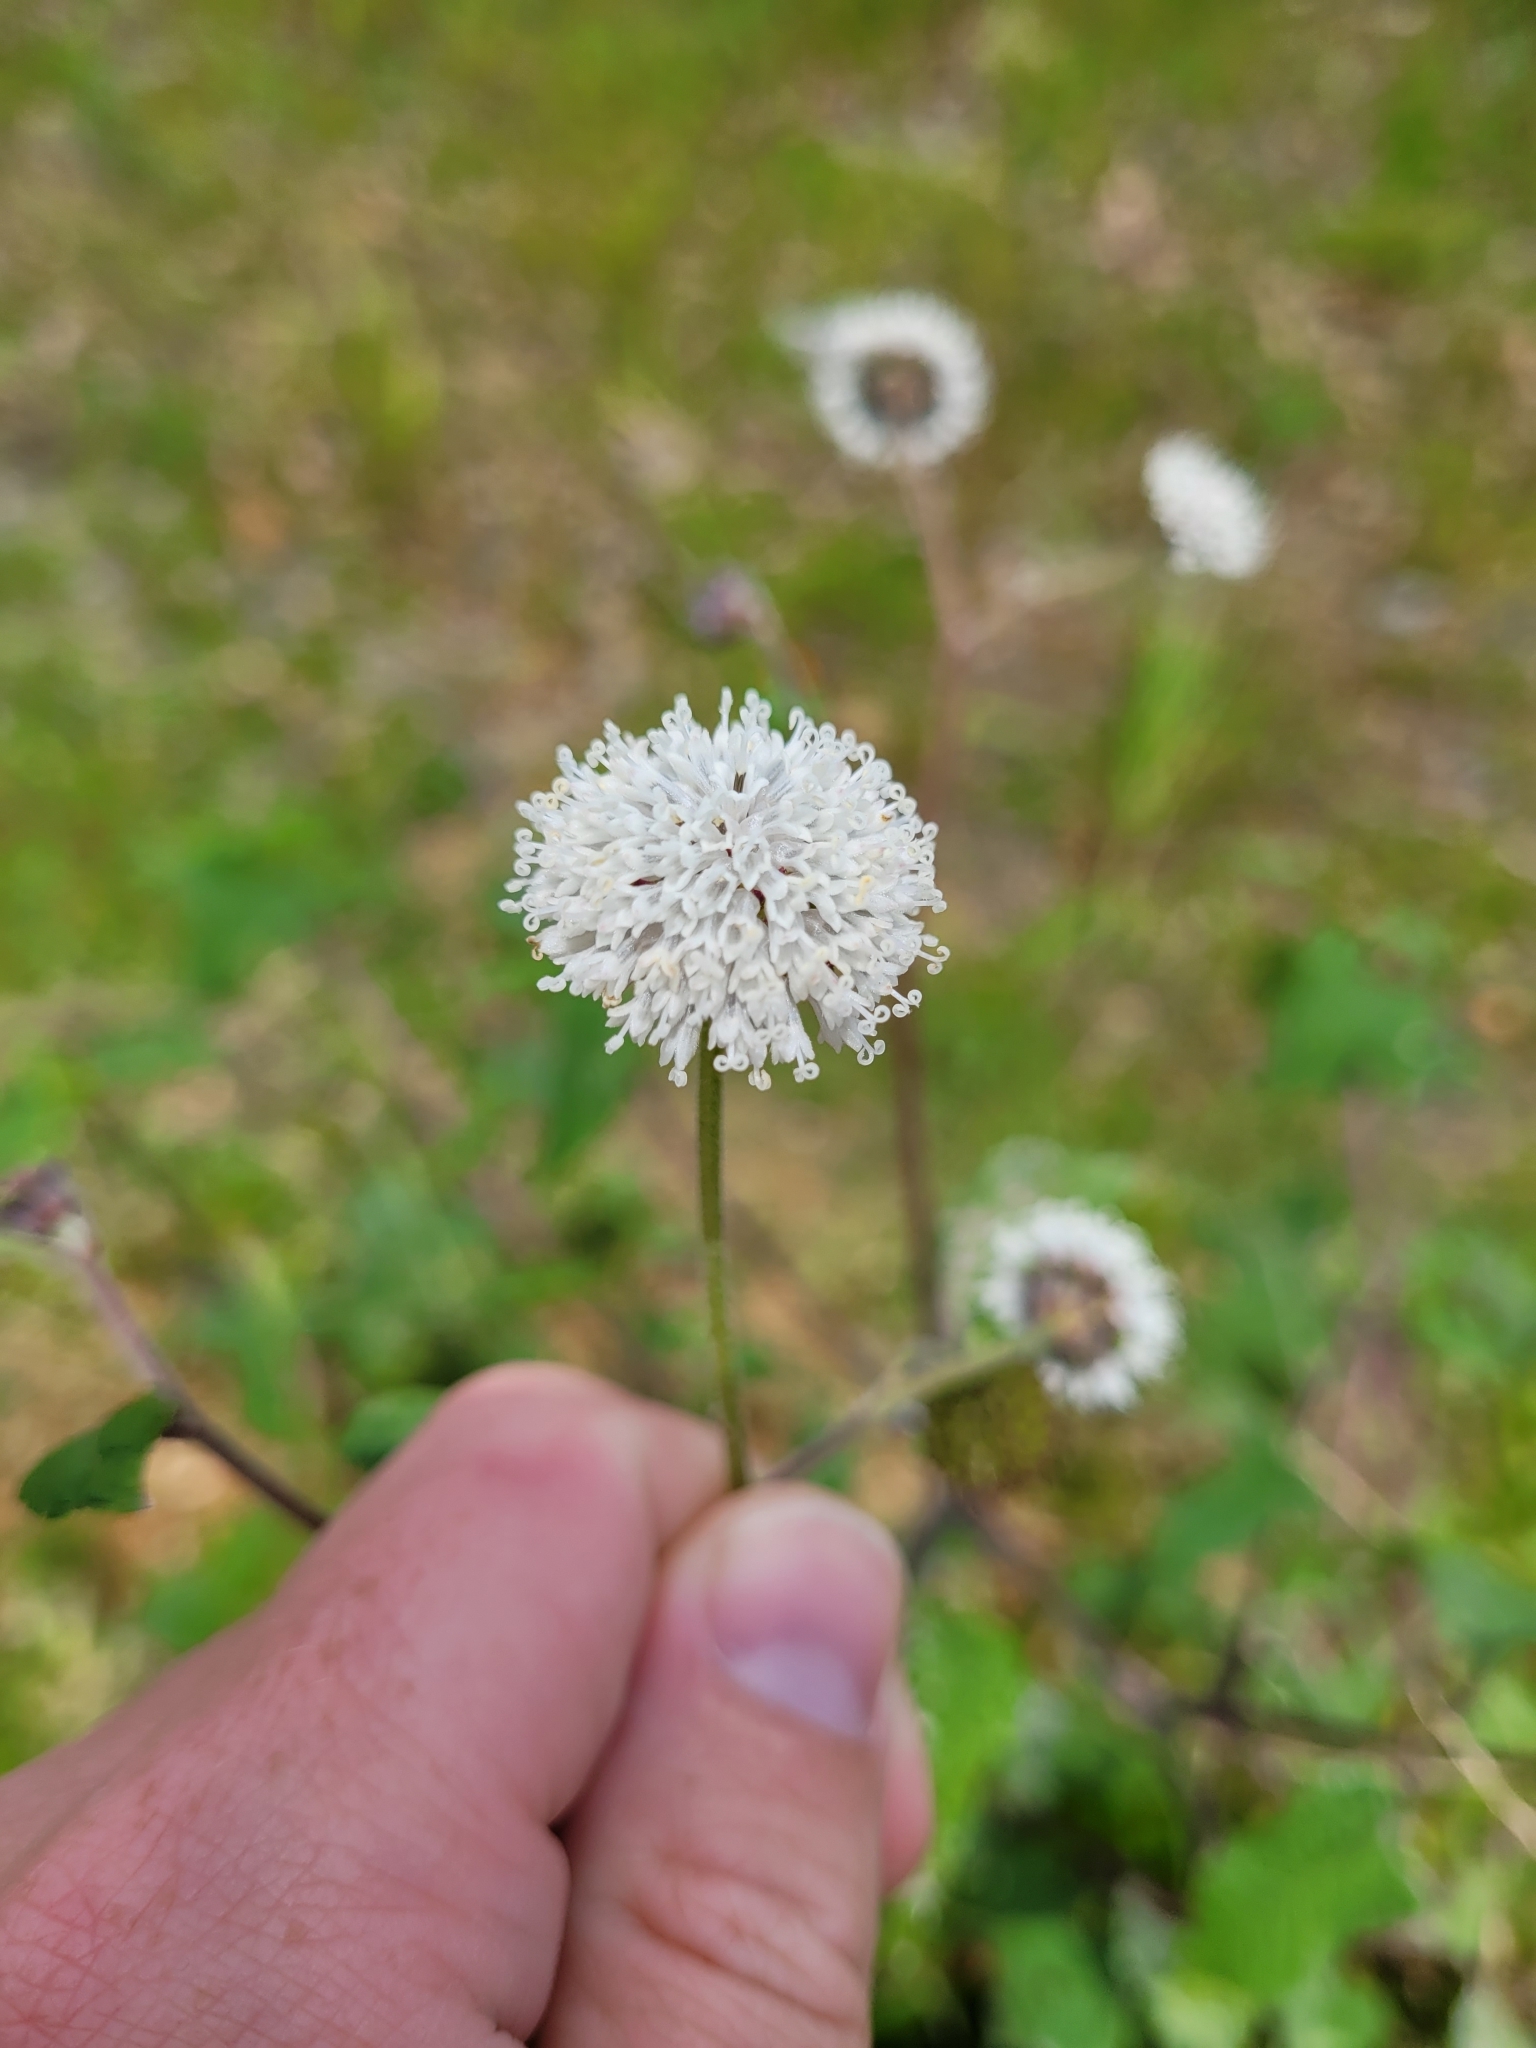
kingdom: Plantae
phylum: Tracheophyta
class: Magnoliopsida
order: Asterales
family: Asteraceae
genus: Melanthera
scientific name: Melanthera nivea
